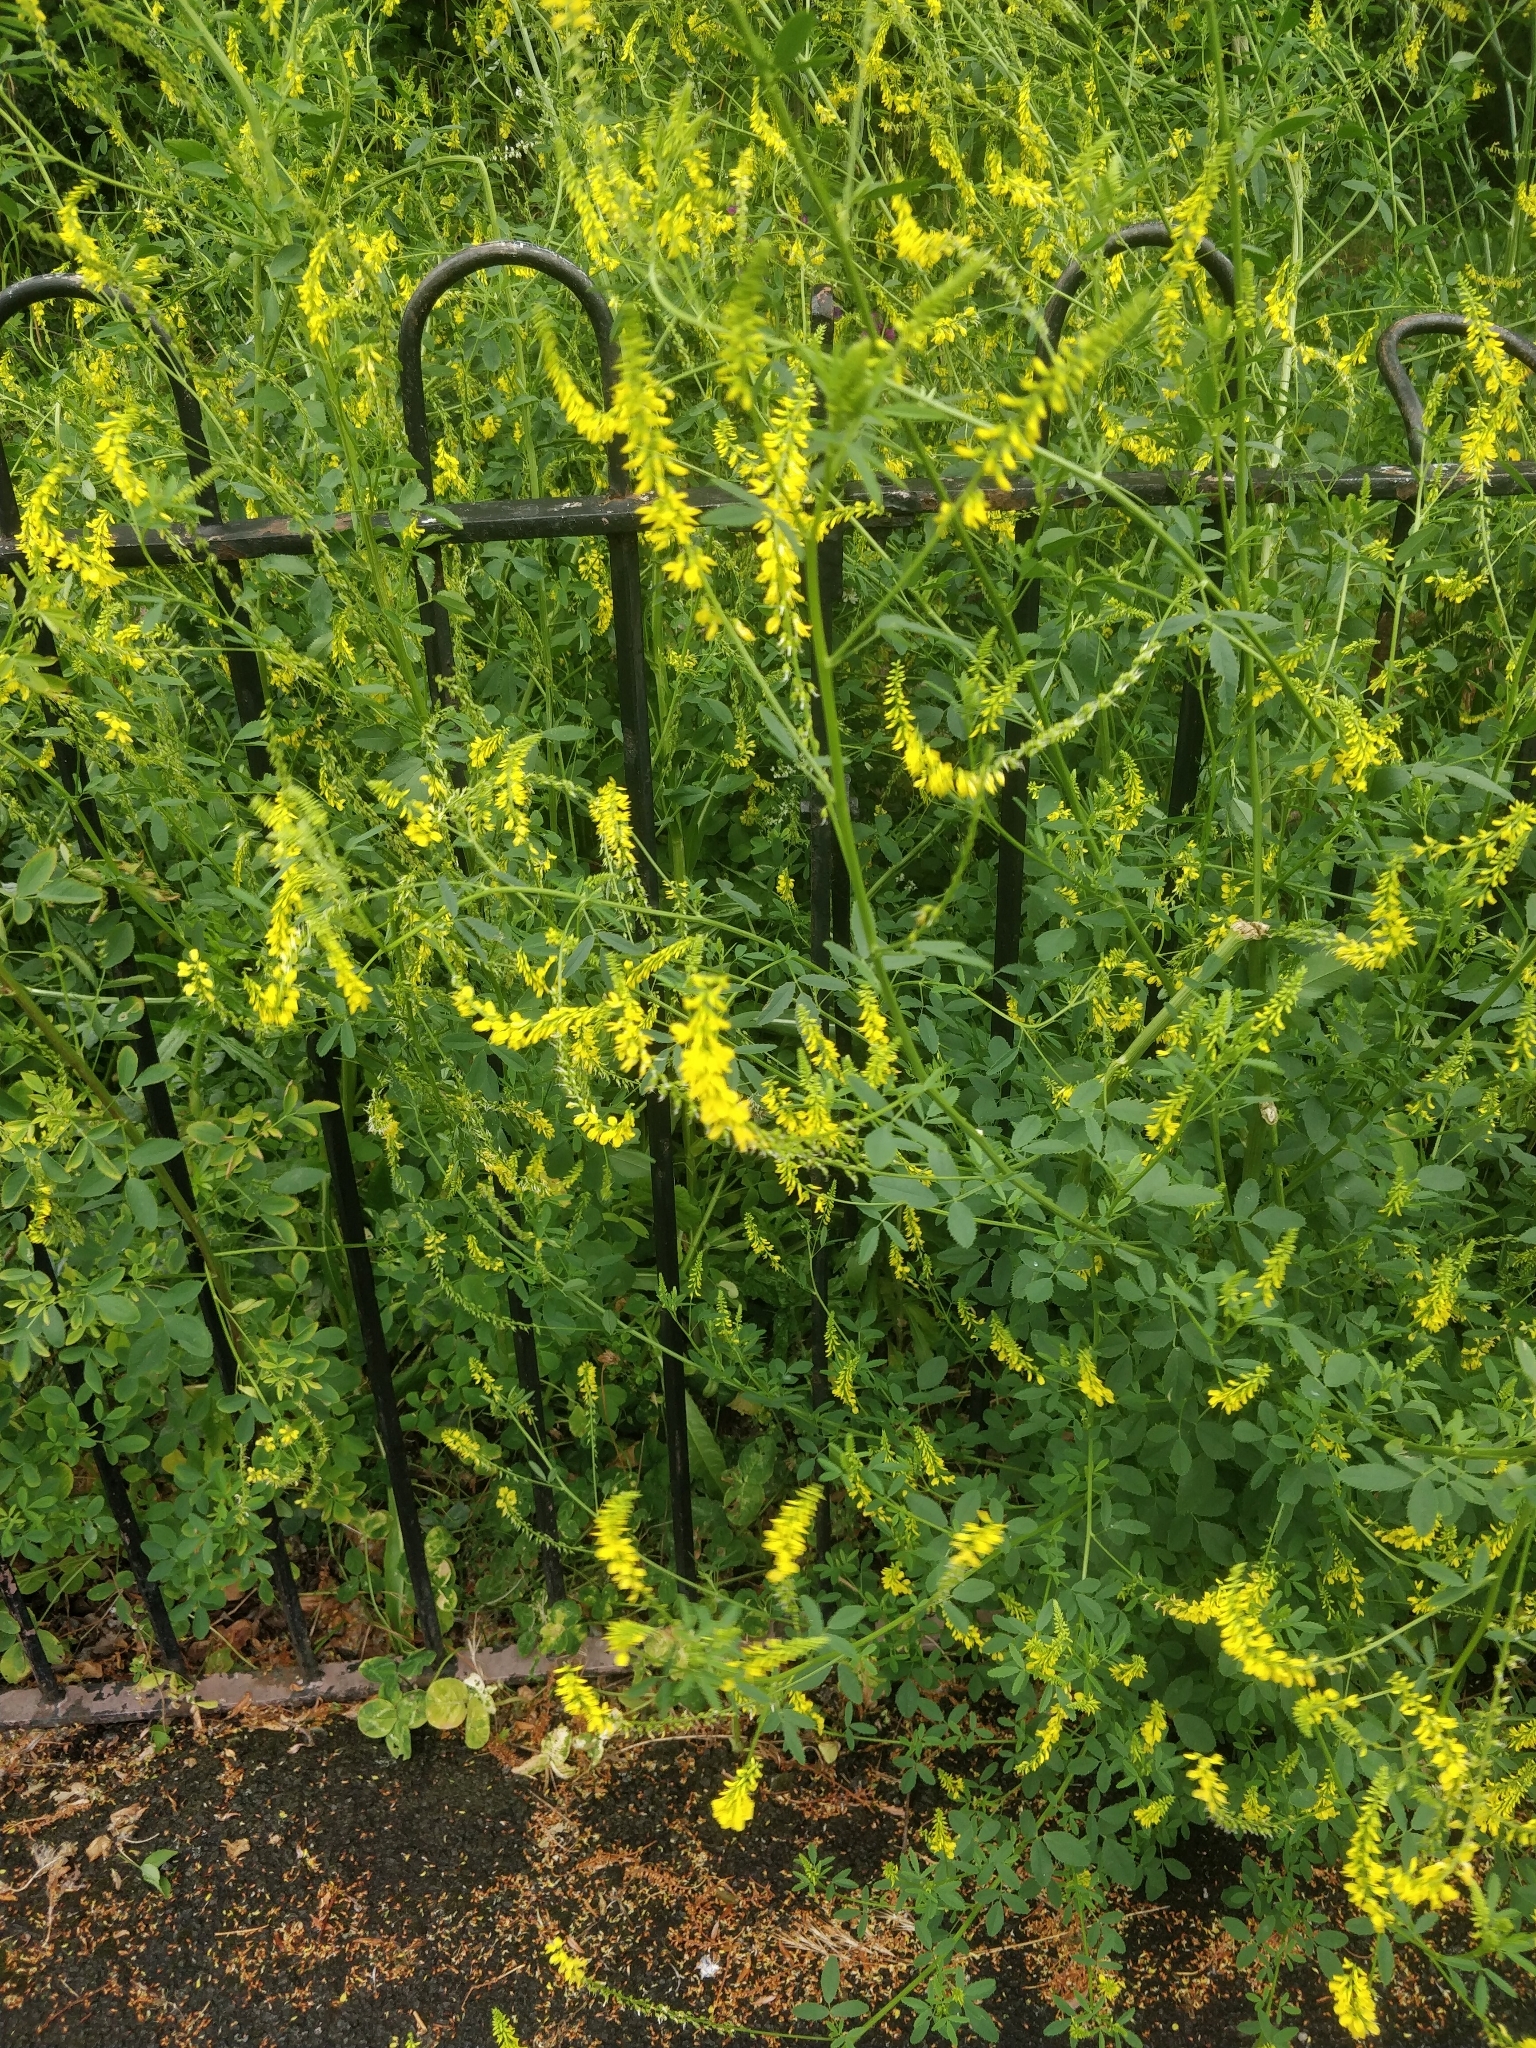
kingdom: Plantae
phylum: Tracheophyta
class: Magnoliopsida
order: Fabales
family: Fabaceae
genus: Melilotus
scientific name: Melilotus officinalis
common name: Sweetclover
